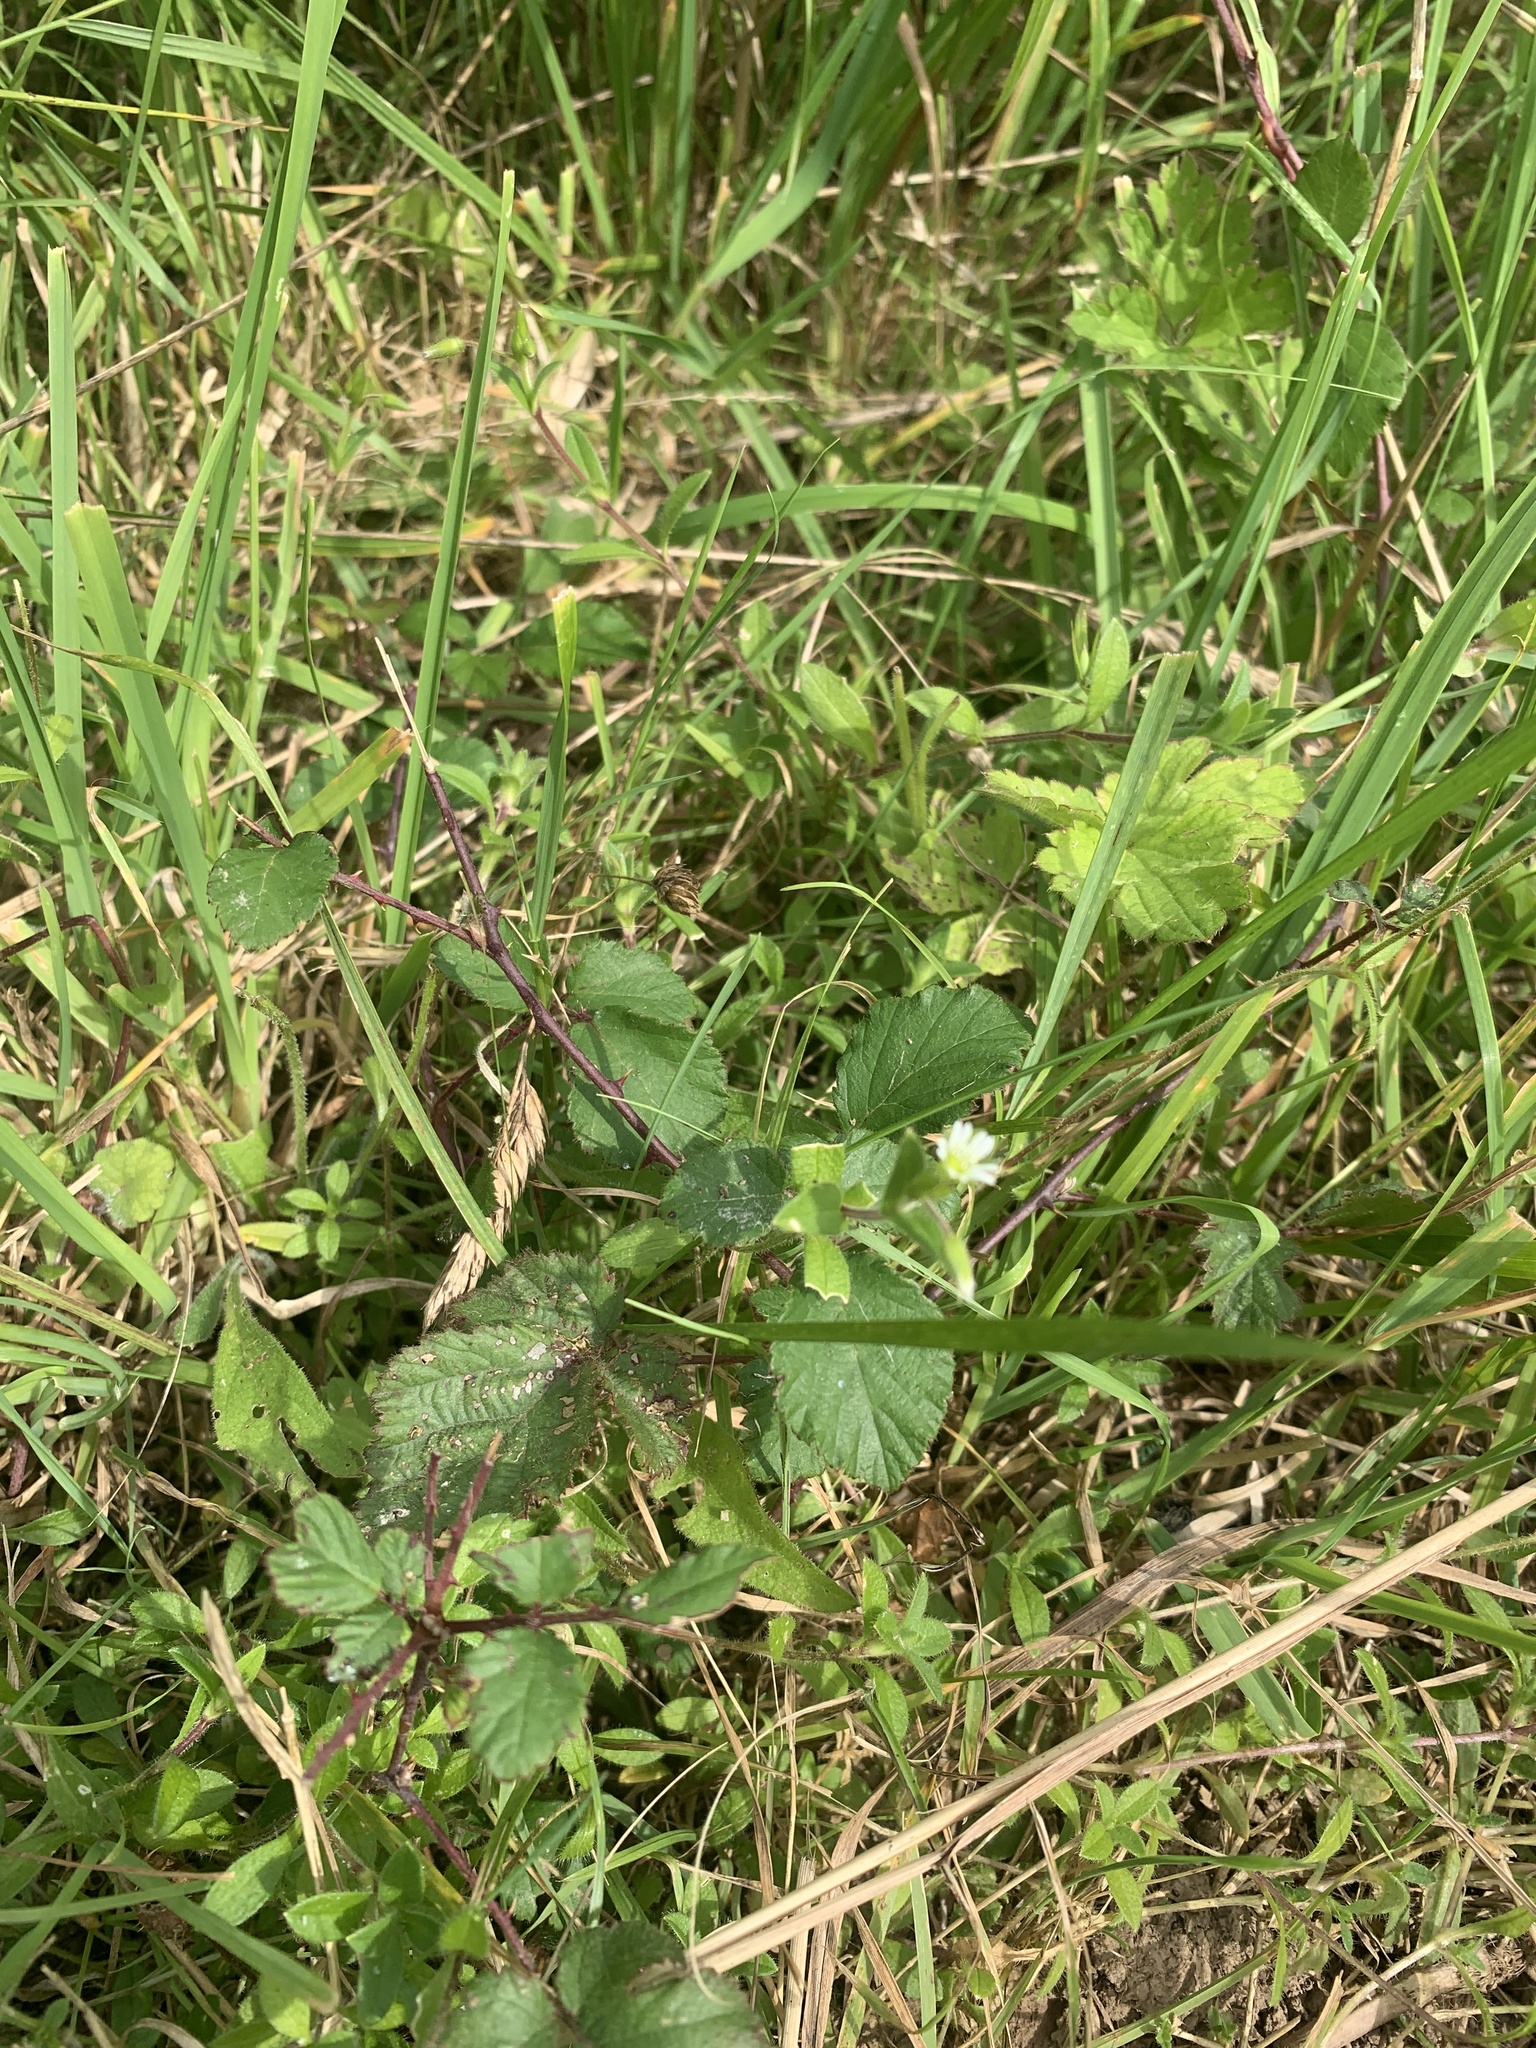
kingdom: Plantae
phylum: Tracheophyta
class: Magnoliopsida
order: Rosales
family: Rosaceae
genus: Rubus
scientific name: Rubus fruticosus
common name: Blackberry, bramble
